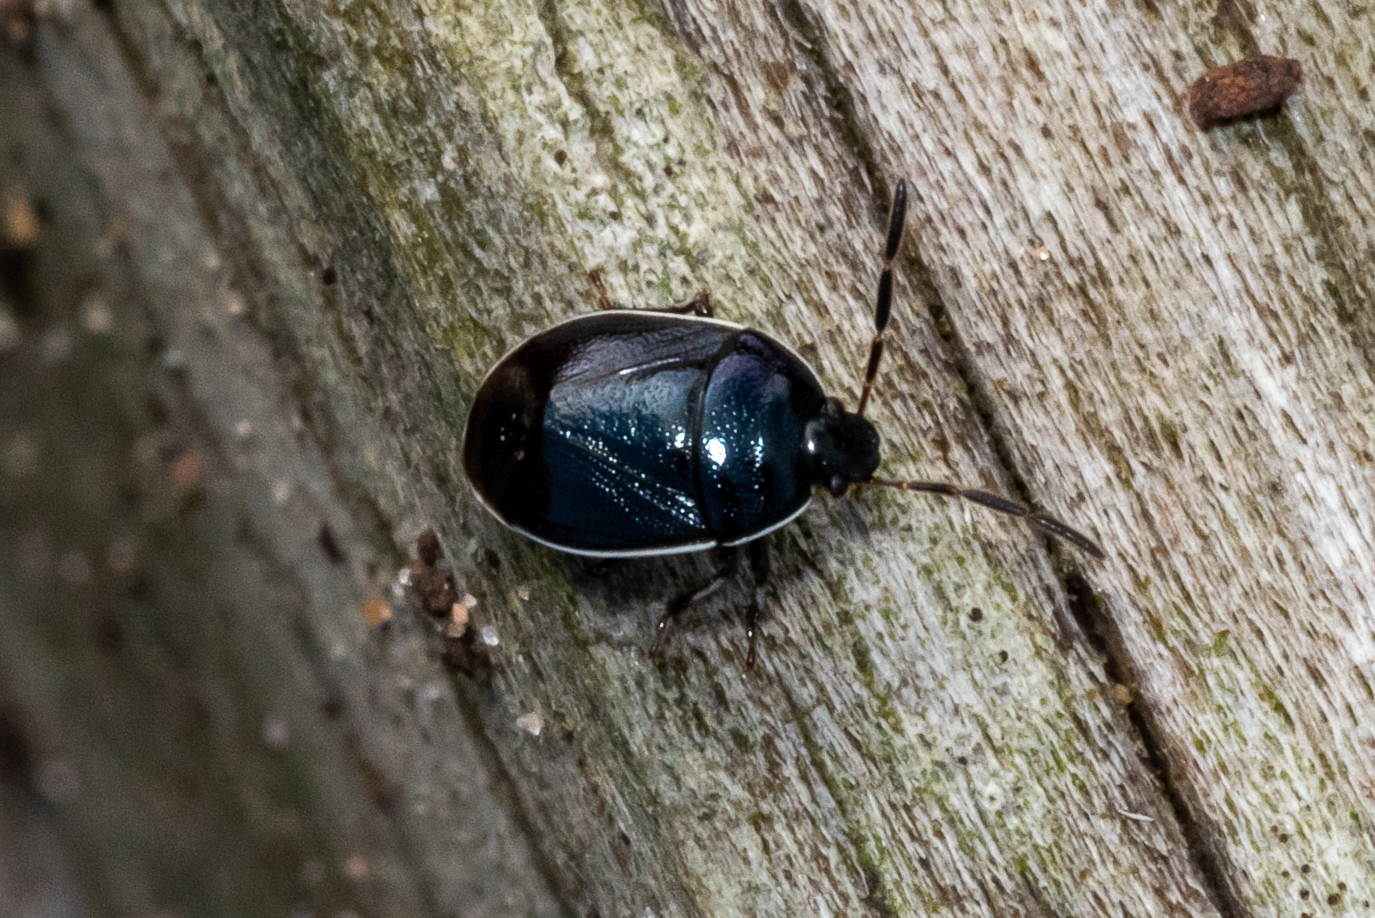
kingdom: Animalia
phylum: Arthropoda
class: Insecta
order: Hemiptera
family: Cydnidae
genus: Sehirus
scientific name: Sehirus cinctus
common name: White-margined burrower bug
